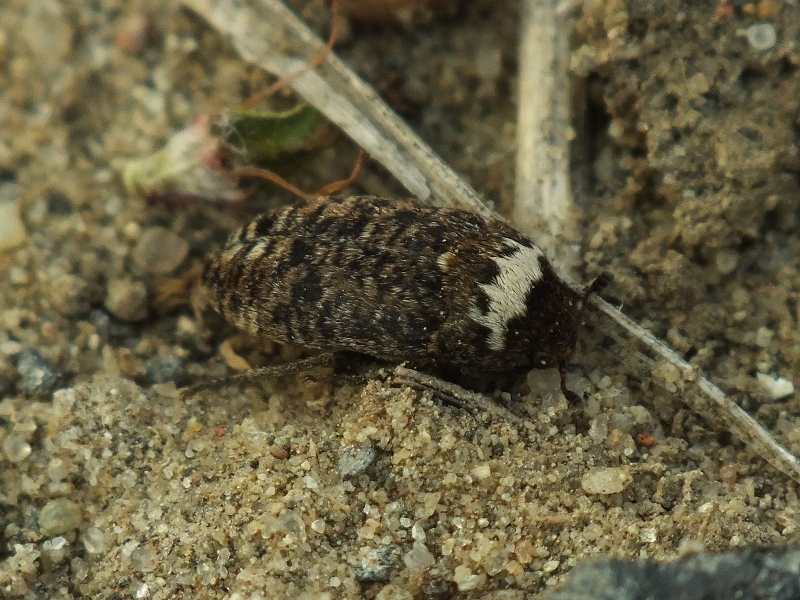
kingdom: Animalia
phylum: Arthropoda
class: Insecta
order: Coleoptera
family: Dermestidae
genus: Dermestes
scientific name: Dermestes coronatus
